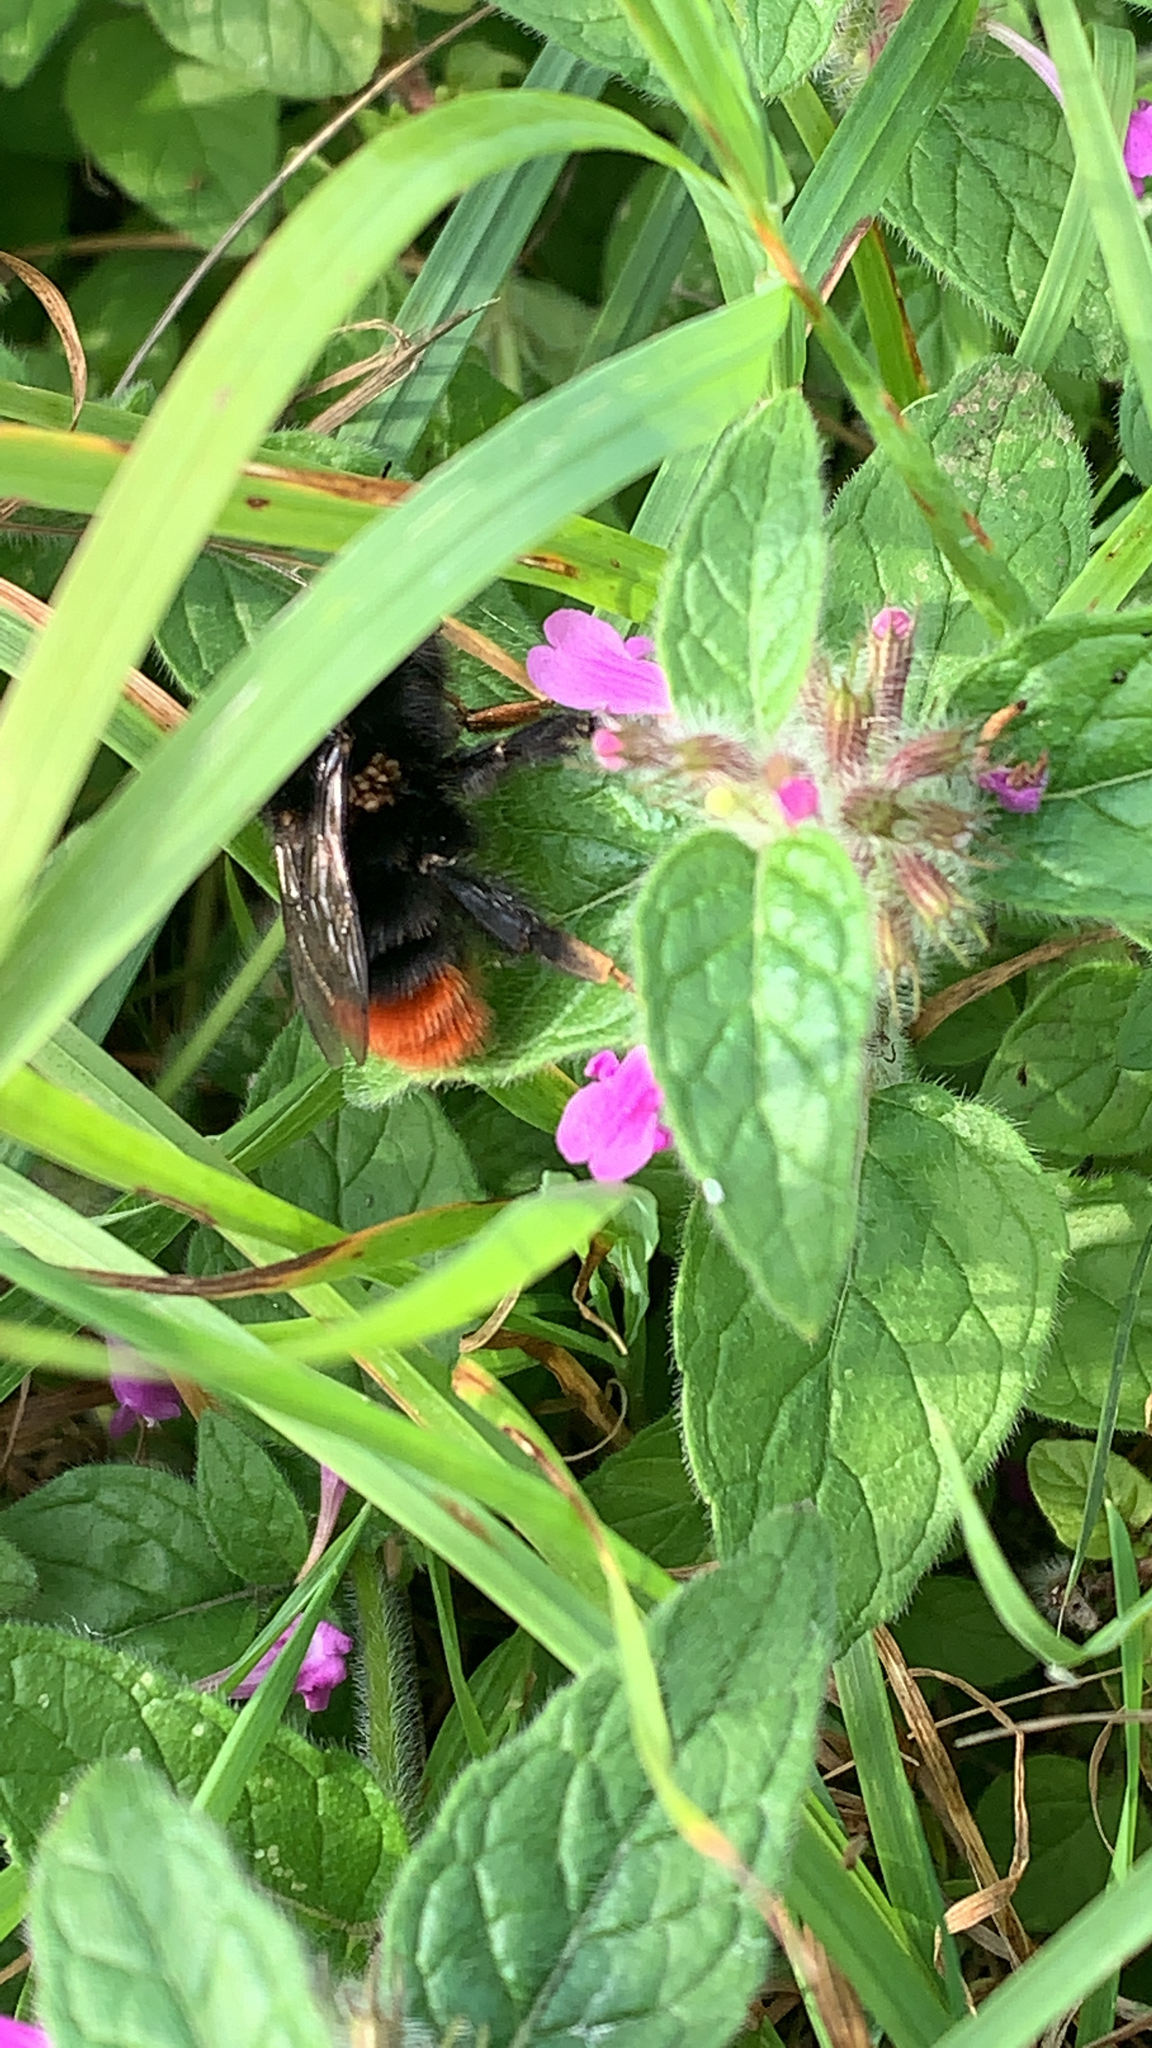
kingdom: Animalia
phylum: Arthropoda
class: Insecta
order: Hymenoptera
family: Apidae
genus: Bombus
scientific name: Bombus lapidarius
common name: Large red-tailed humble-bee
